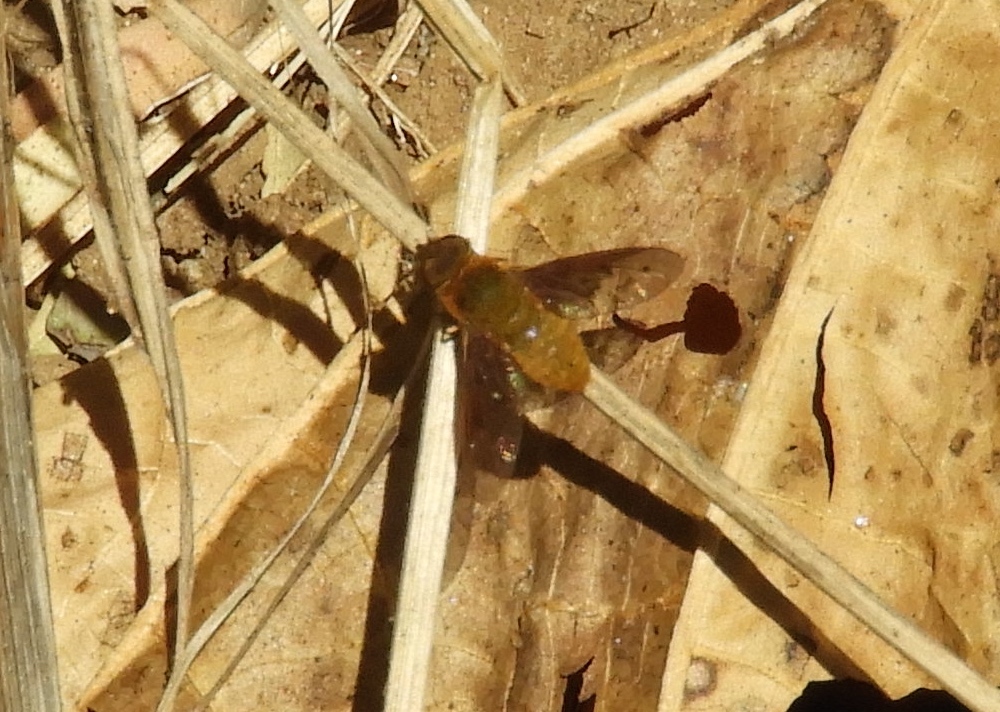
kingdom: Animalia
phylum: Arthropoda
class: Insecta
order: Diptera
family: Bombyliidae
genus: Chrysanthrax
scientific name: Chrysanthrax edititius
